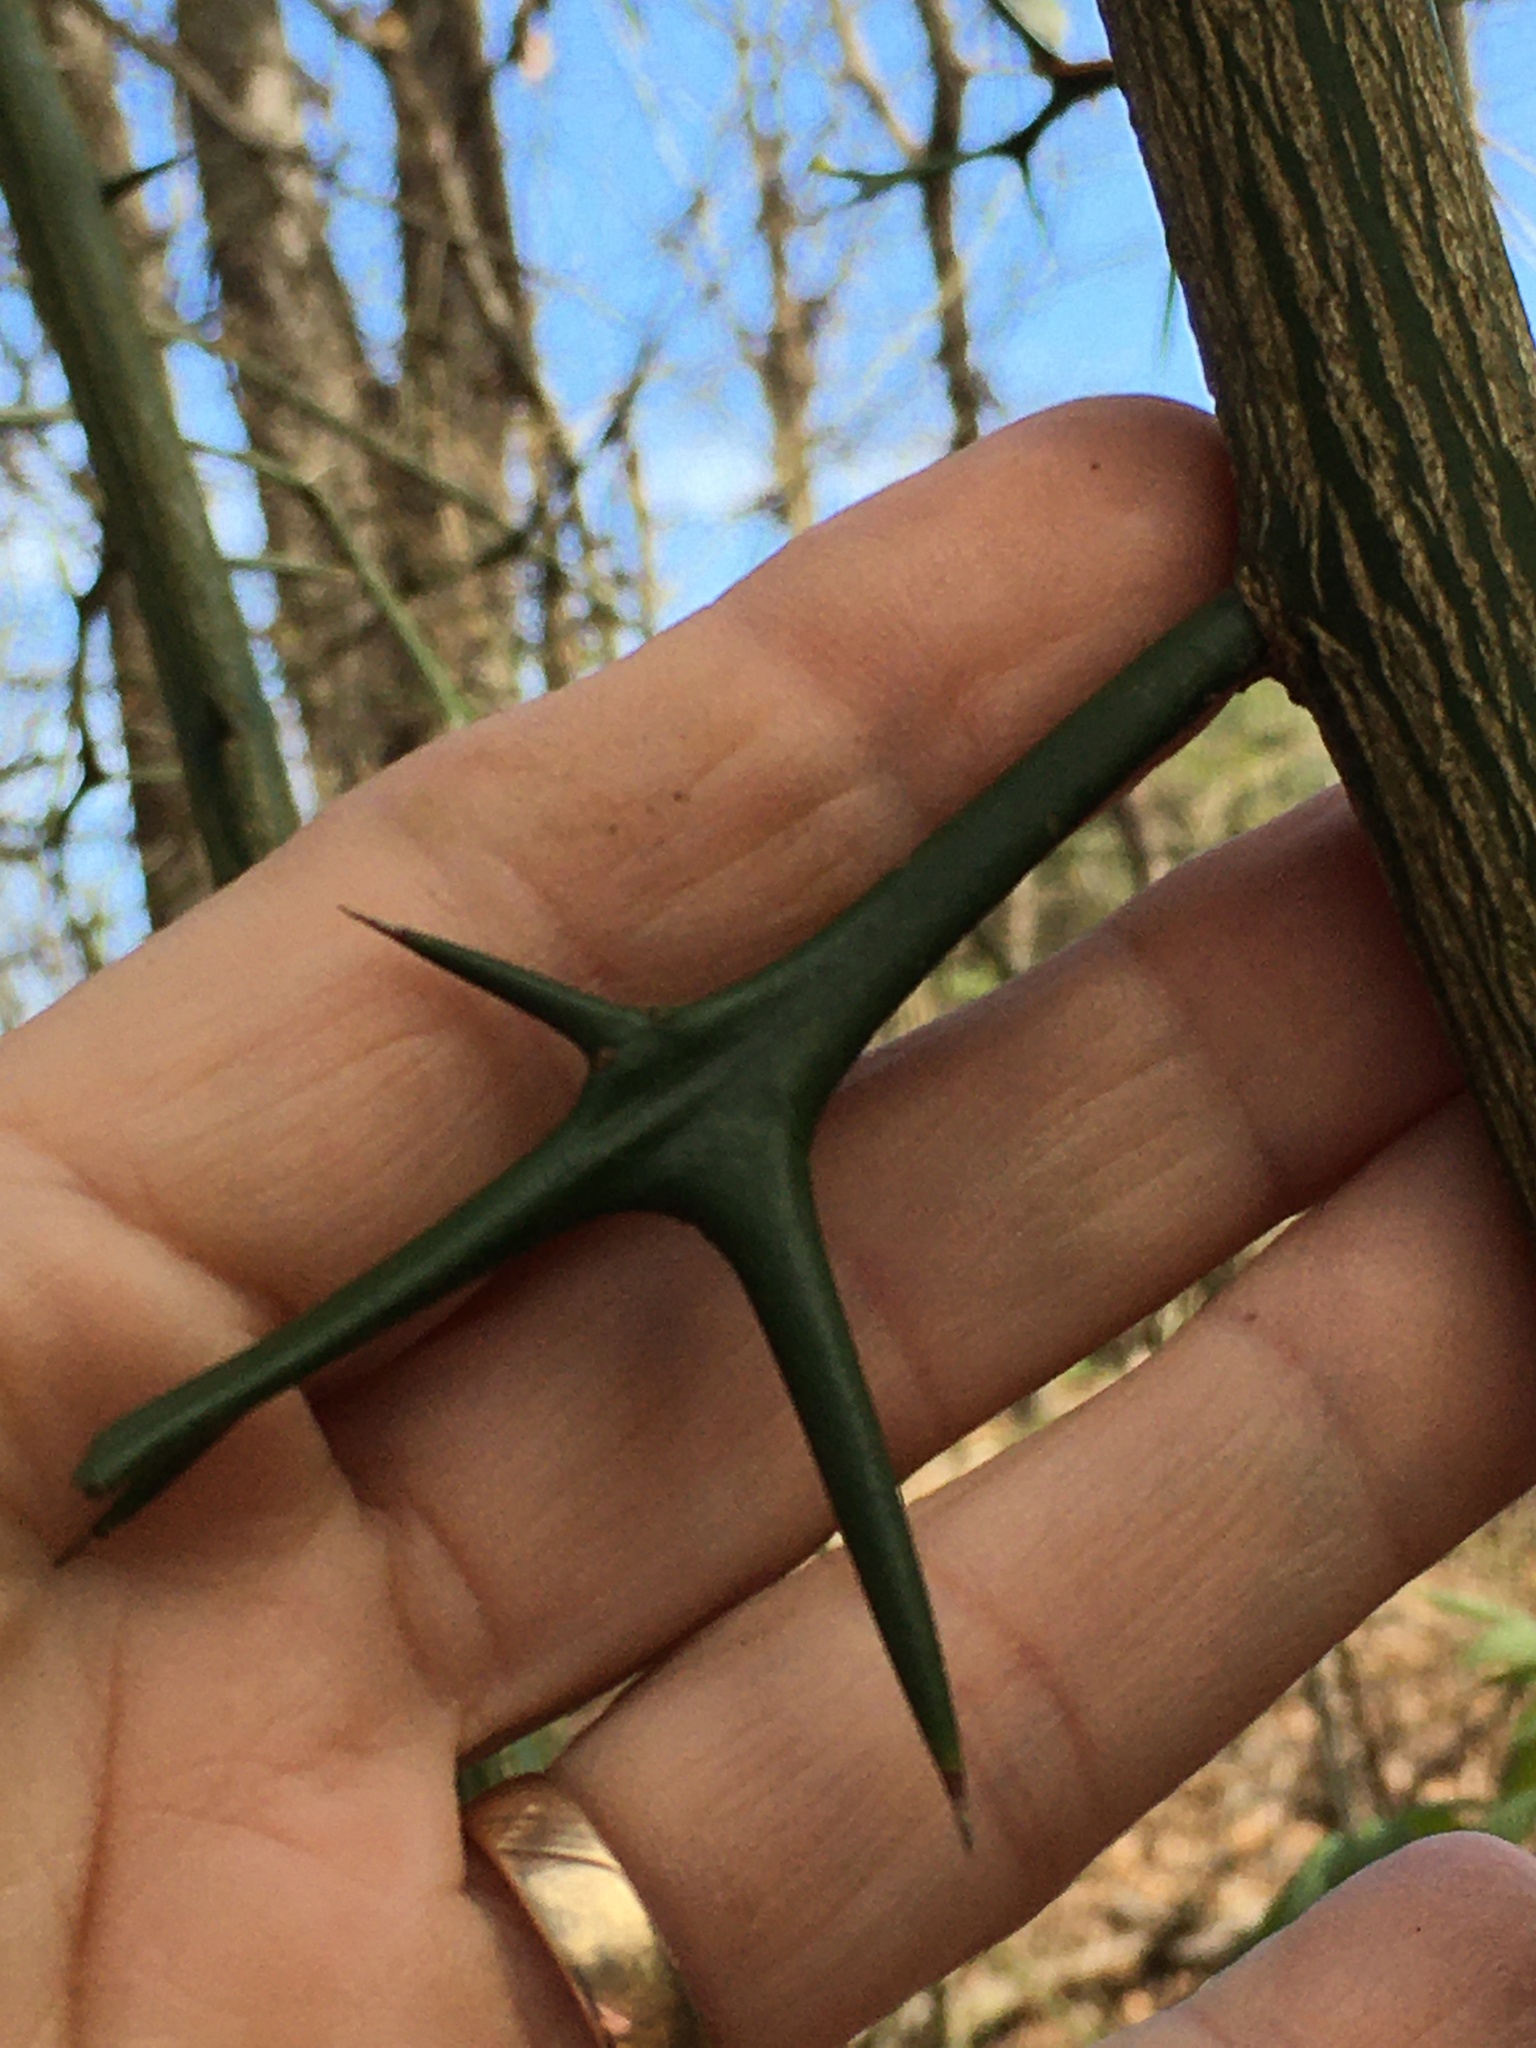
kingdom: Plantae
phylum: Tracheophyta
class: Magnoliopsida
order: Sapindales
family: Rutaceae
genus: Citrus
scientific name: Citrus trifoliata
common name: Japanese bitter-orange
